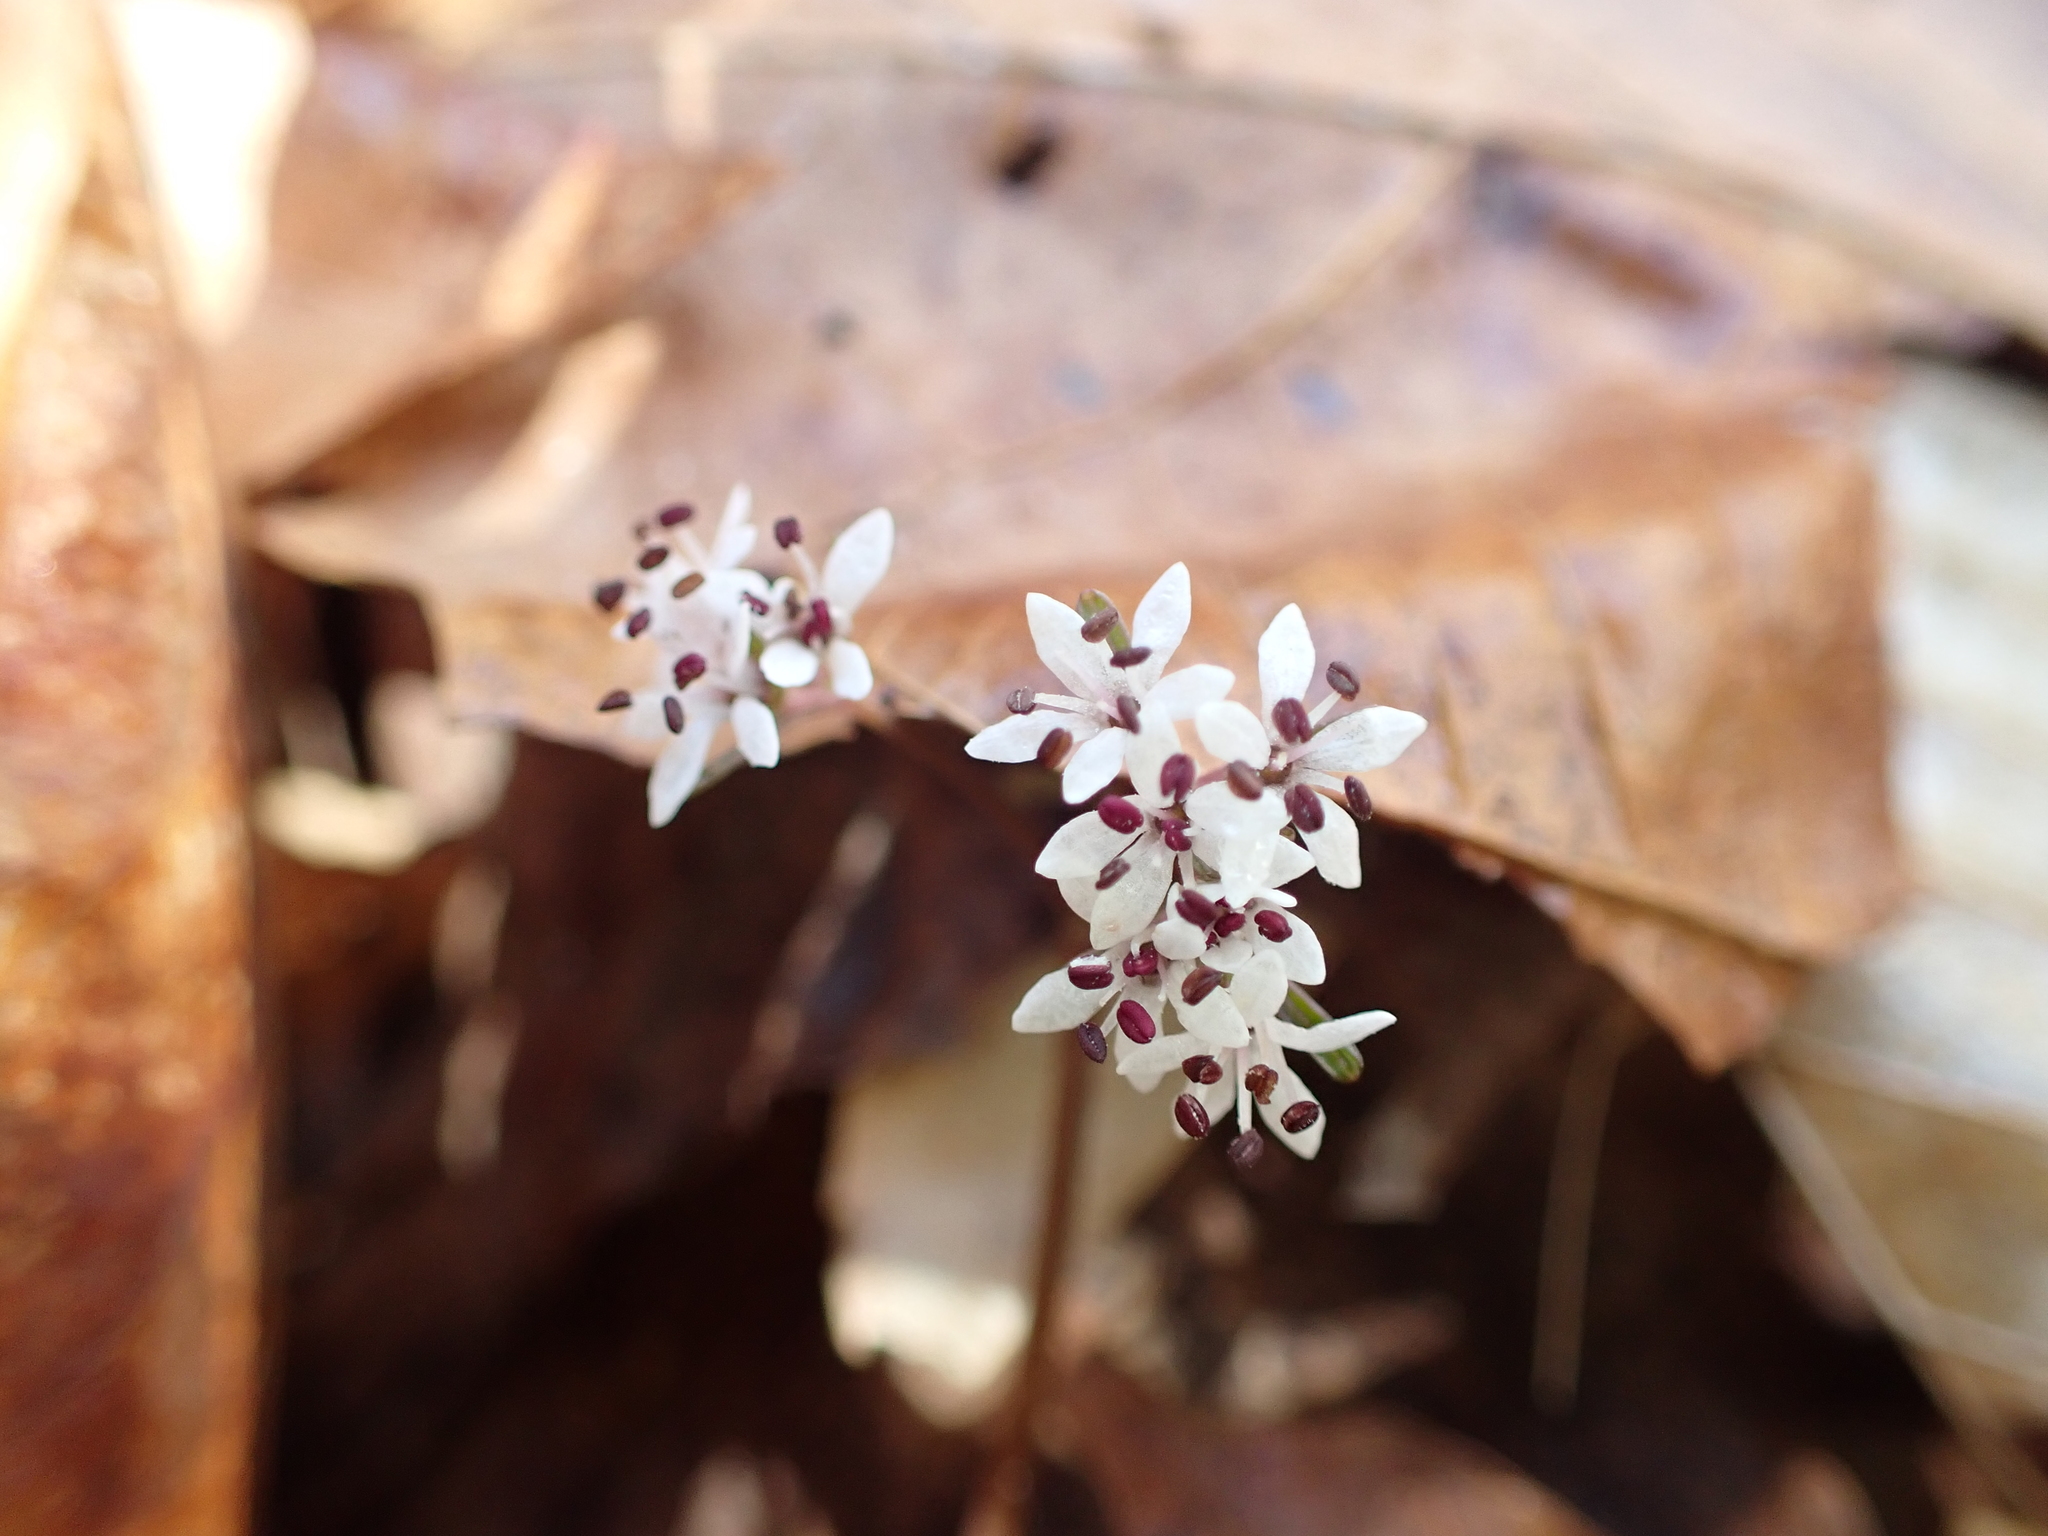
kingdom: Plantae
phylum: Tracheophyta
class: Magnoliopsida
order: Apiales
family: Apiaceae
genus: Erigenia
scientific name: Erigenia bulbosa
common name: Pepper-and-salt
